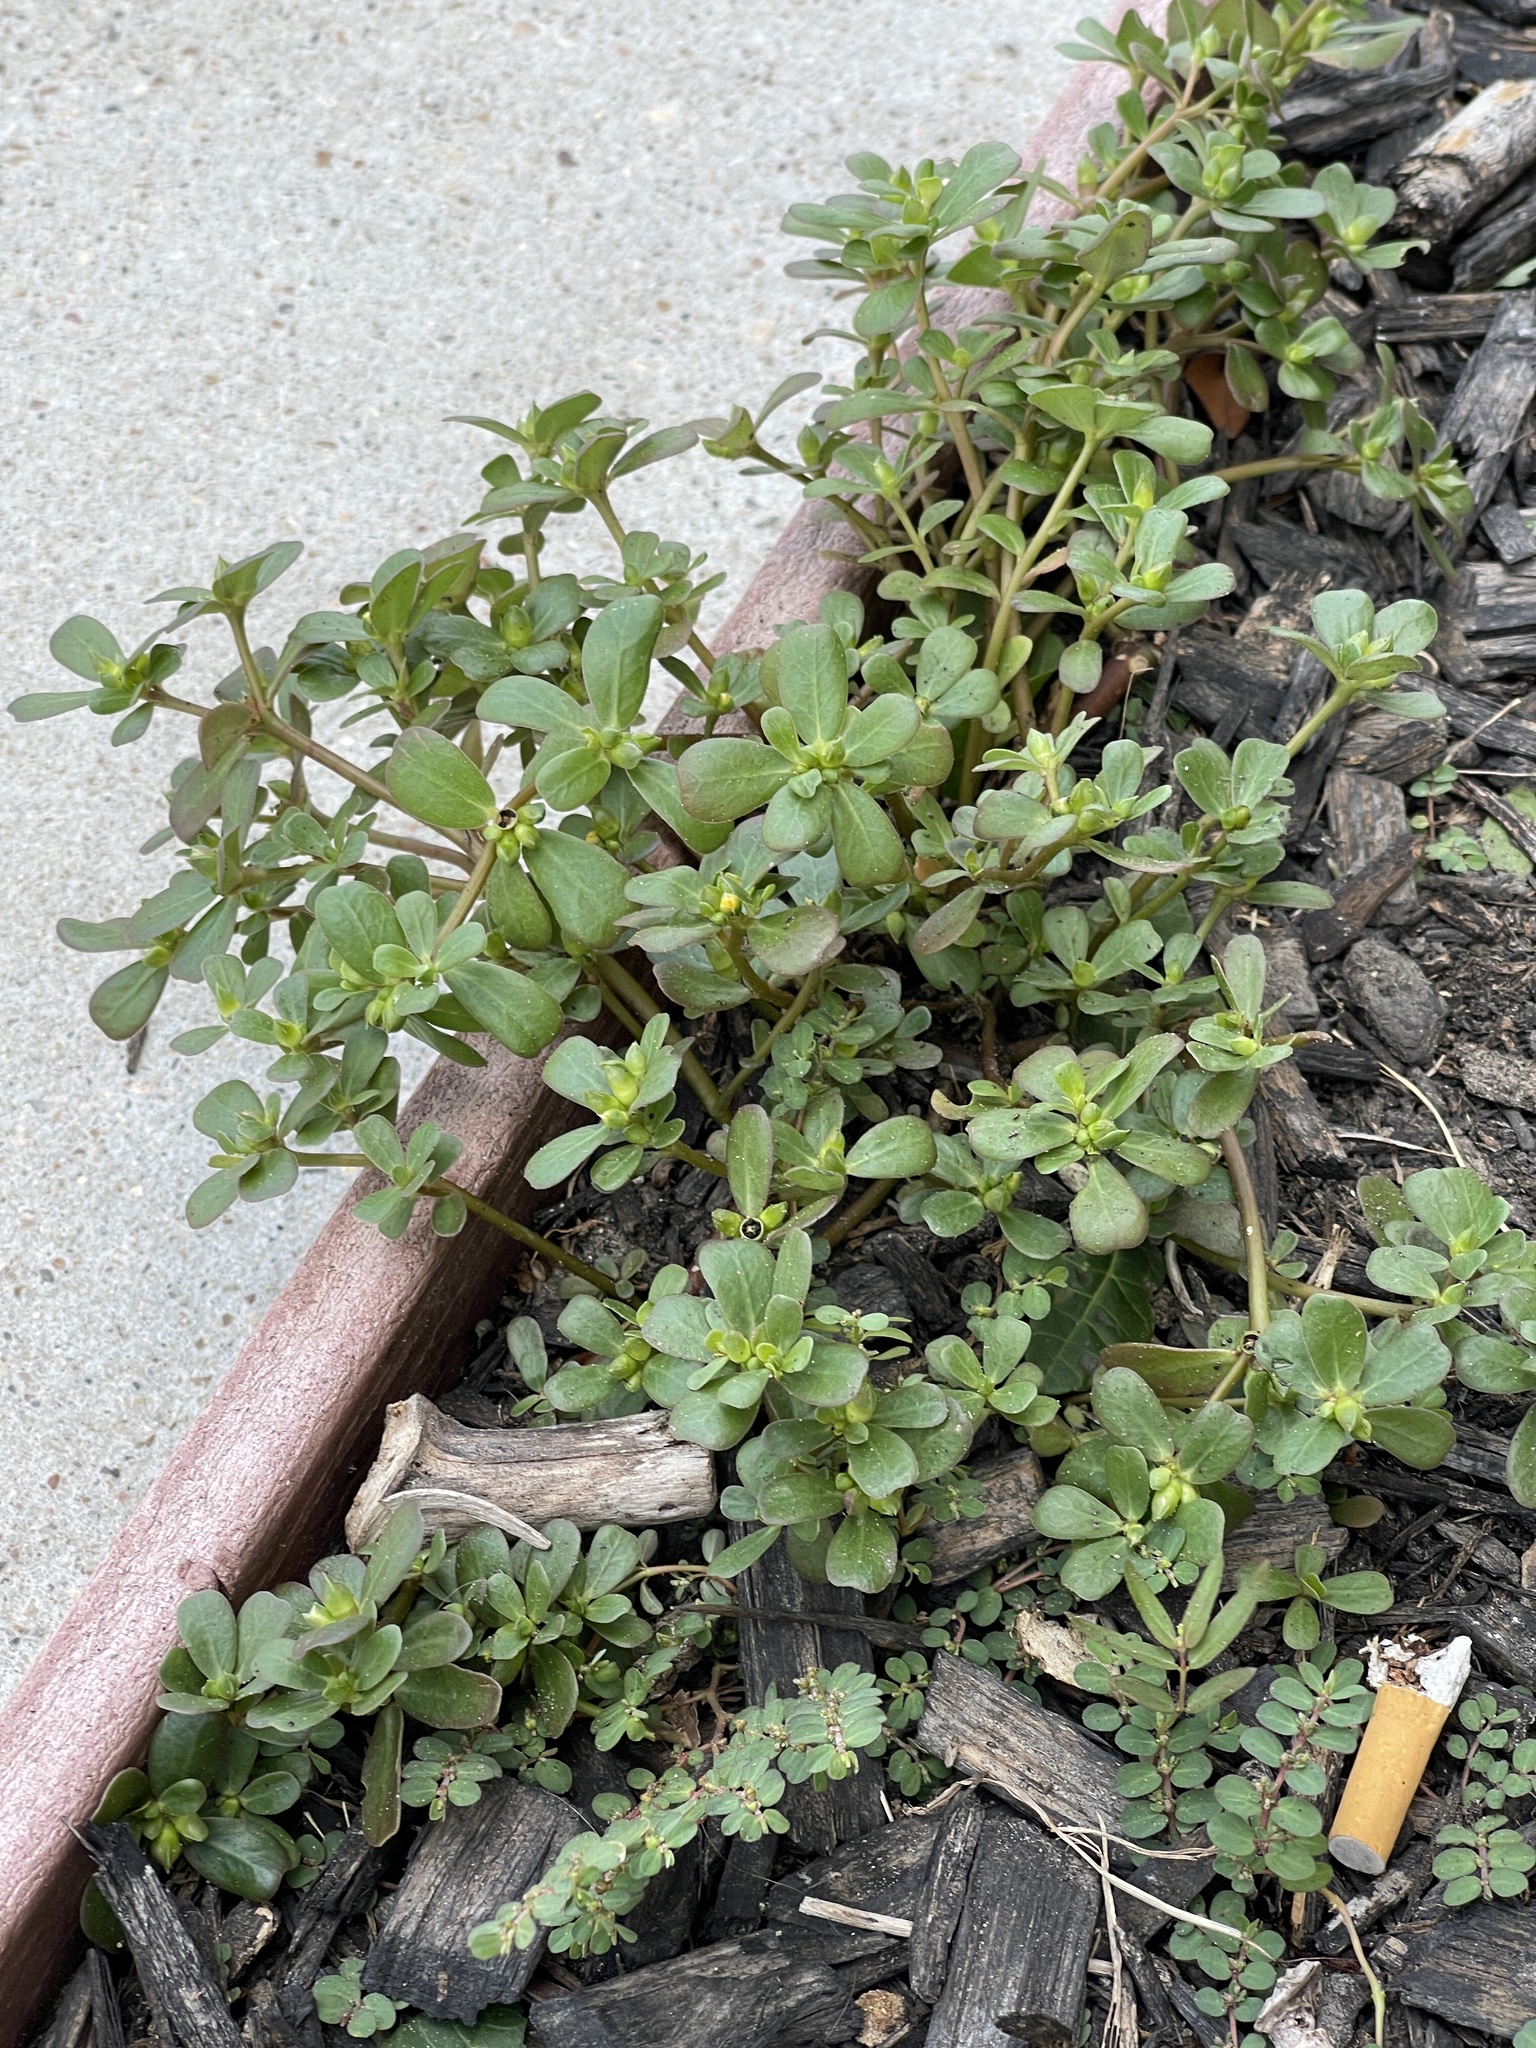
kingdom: Plantae
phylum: Tracheophyta
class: Magnoliopsida
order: Caryophyllales
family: Portulacaceae
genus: Portulaca
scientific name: Portulaca oleracea
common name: Common purslane
